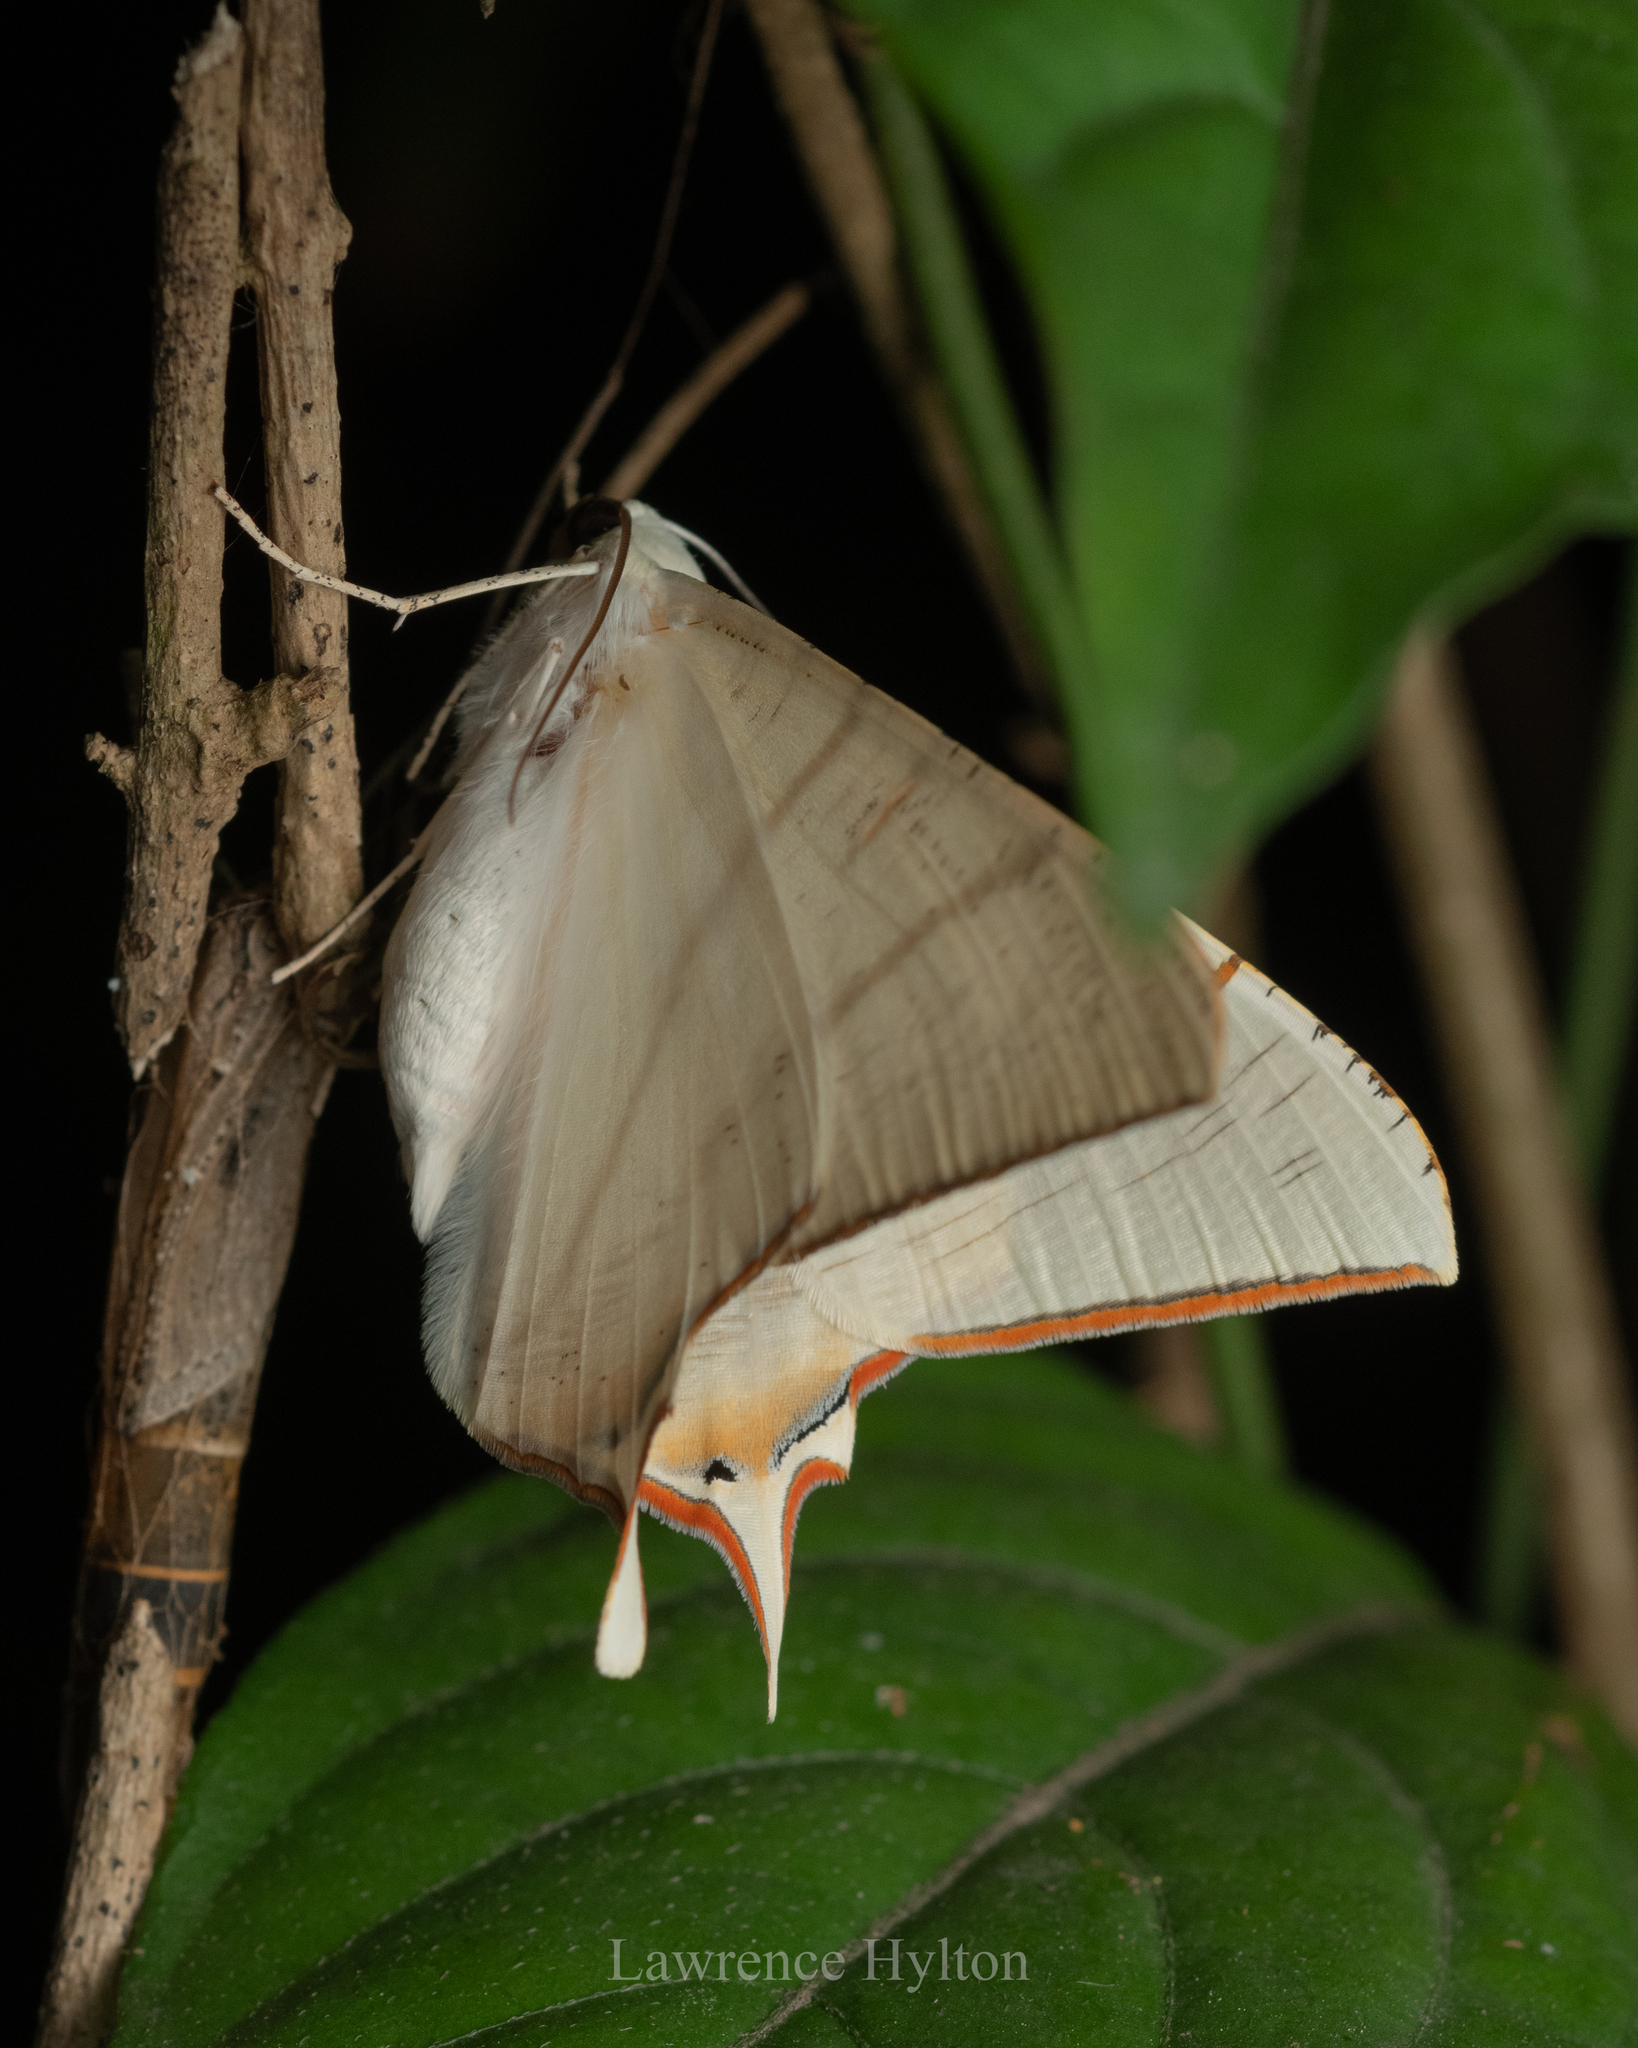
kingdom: Animalia
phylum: Arthropoda
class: Insecta
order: Lepidoptera
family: Geometridae
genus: Ourapteryx
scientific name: Ourapteryx clara
